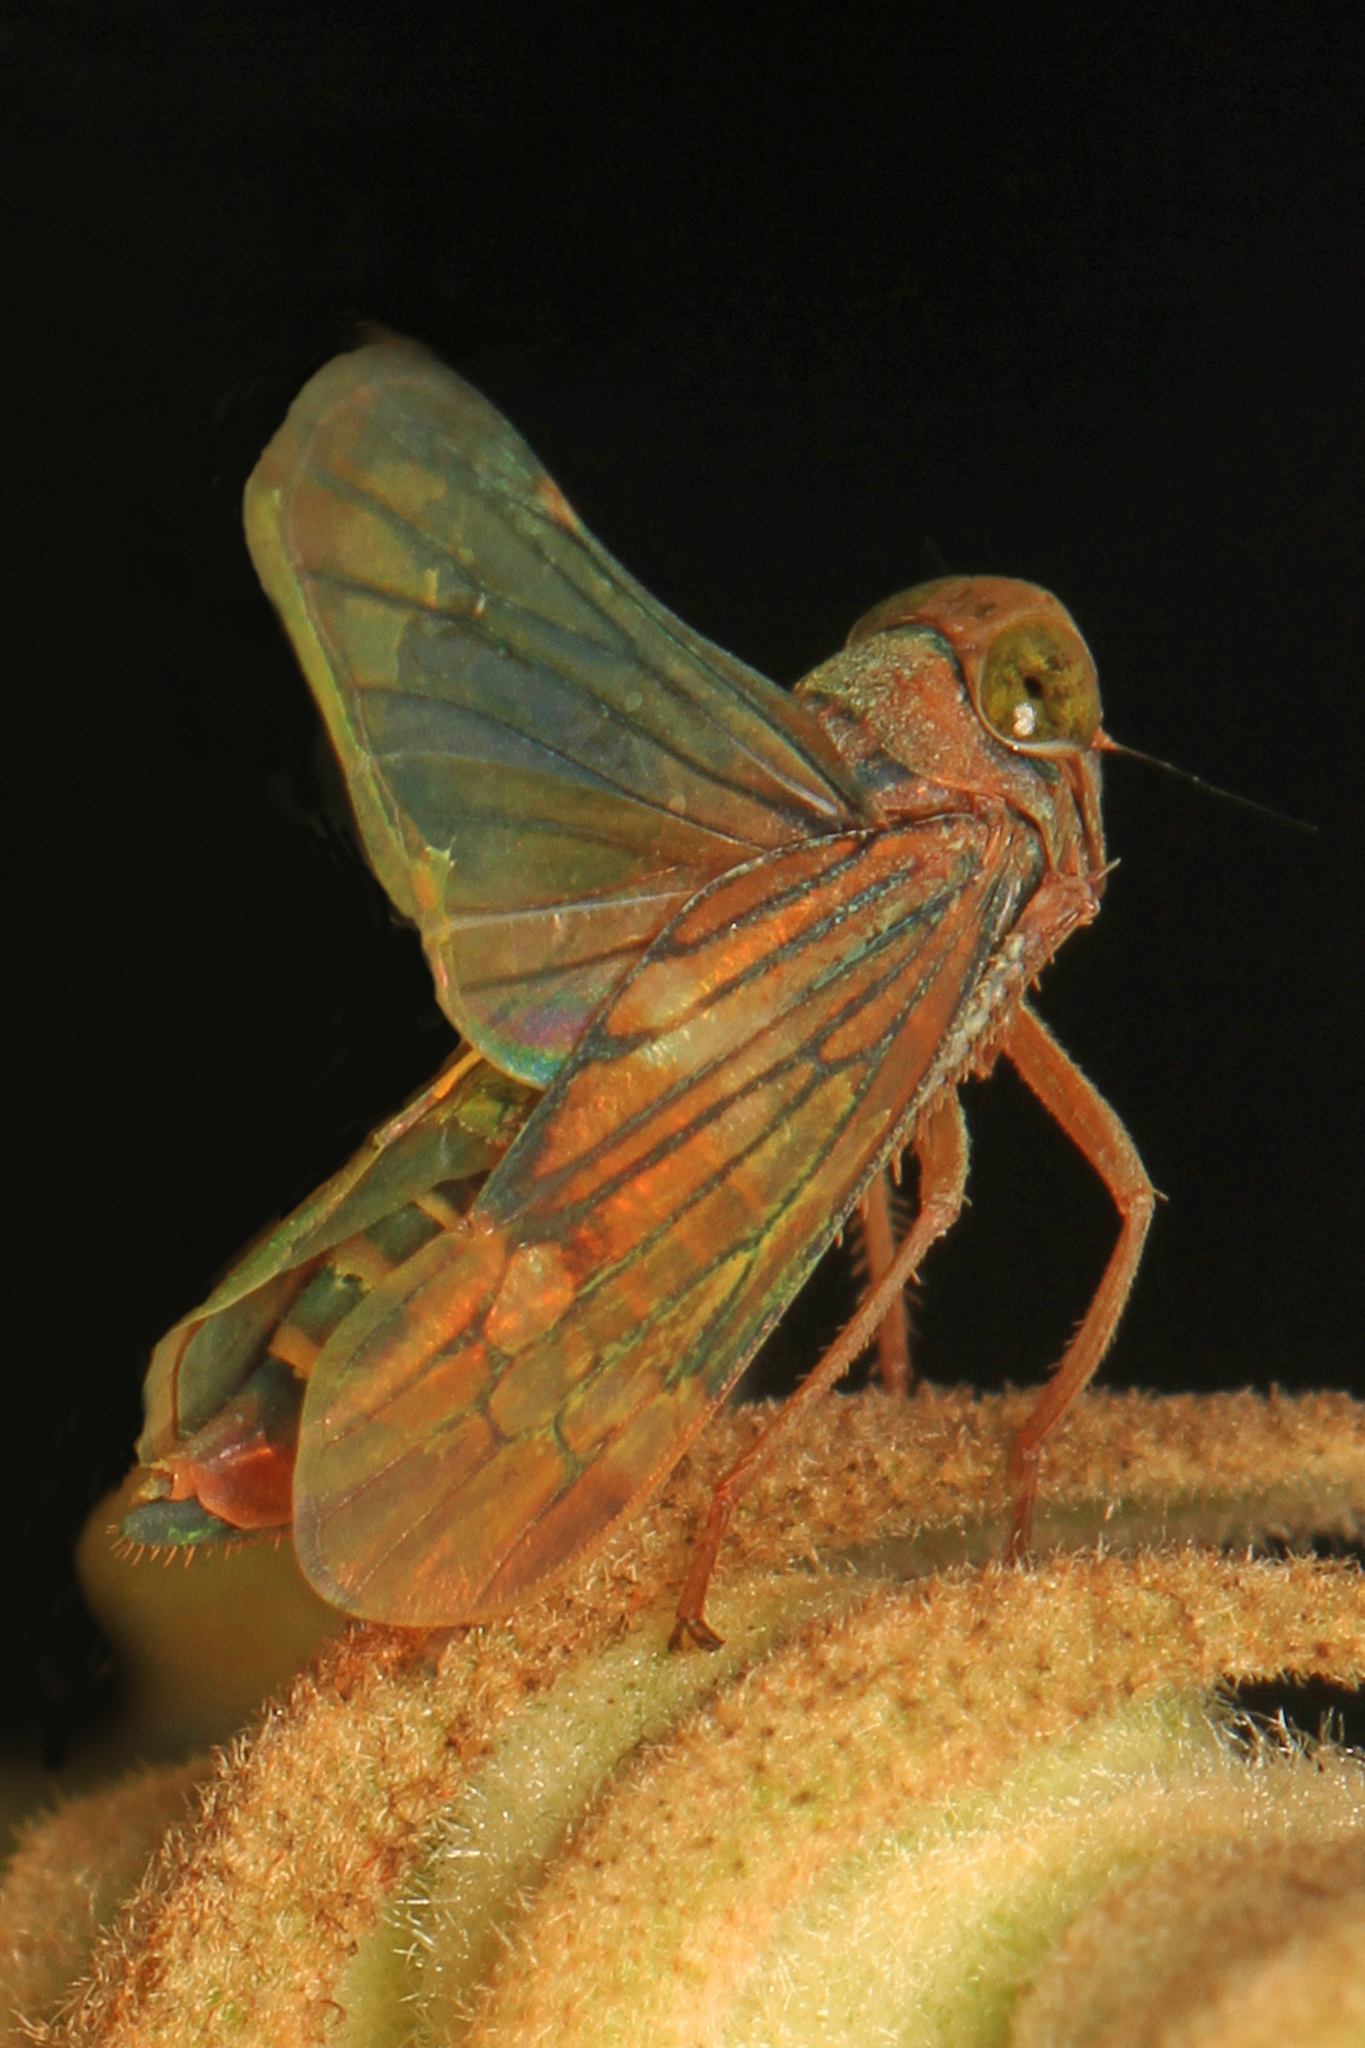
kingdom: Animalia
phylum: Arthropoda
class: Insecta
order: Hemiptera
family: Cicadellidae
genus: Jikradia
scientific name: Jikradia olitoria
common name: Coppery leafhopper
